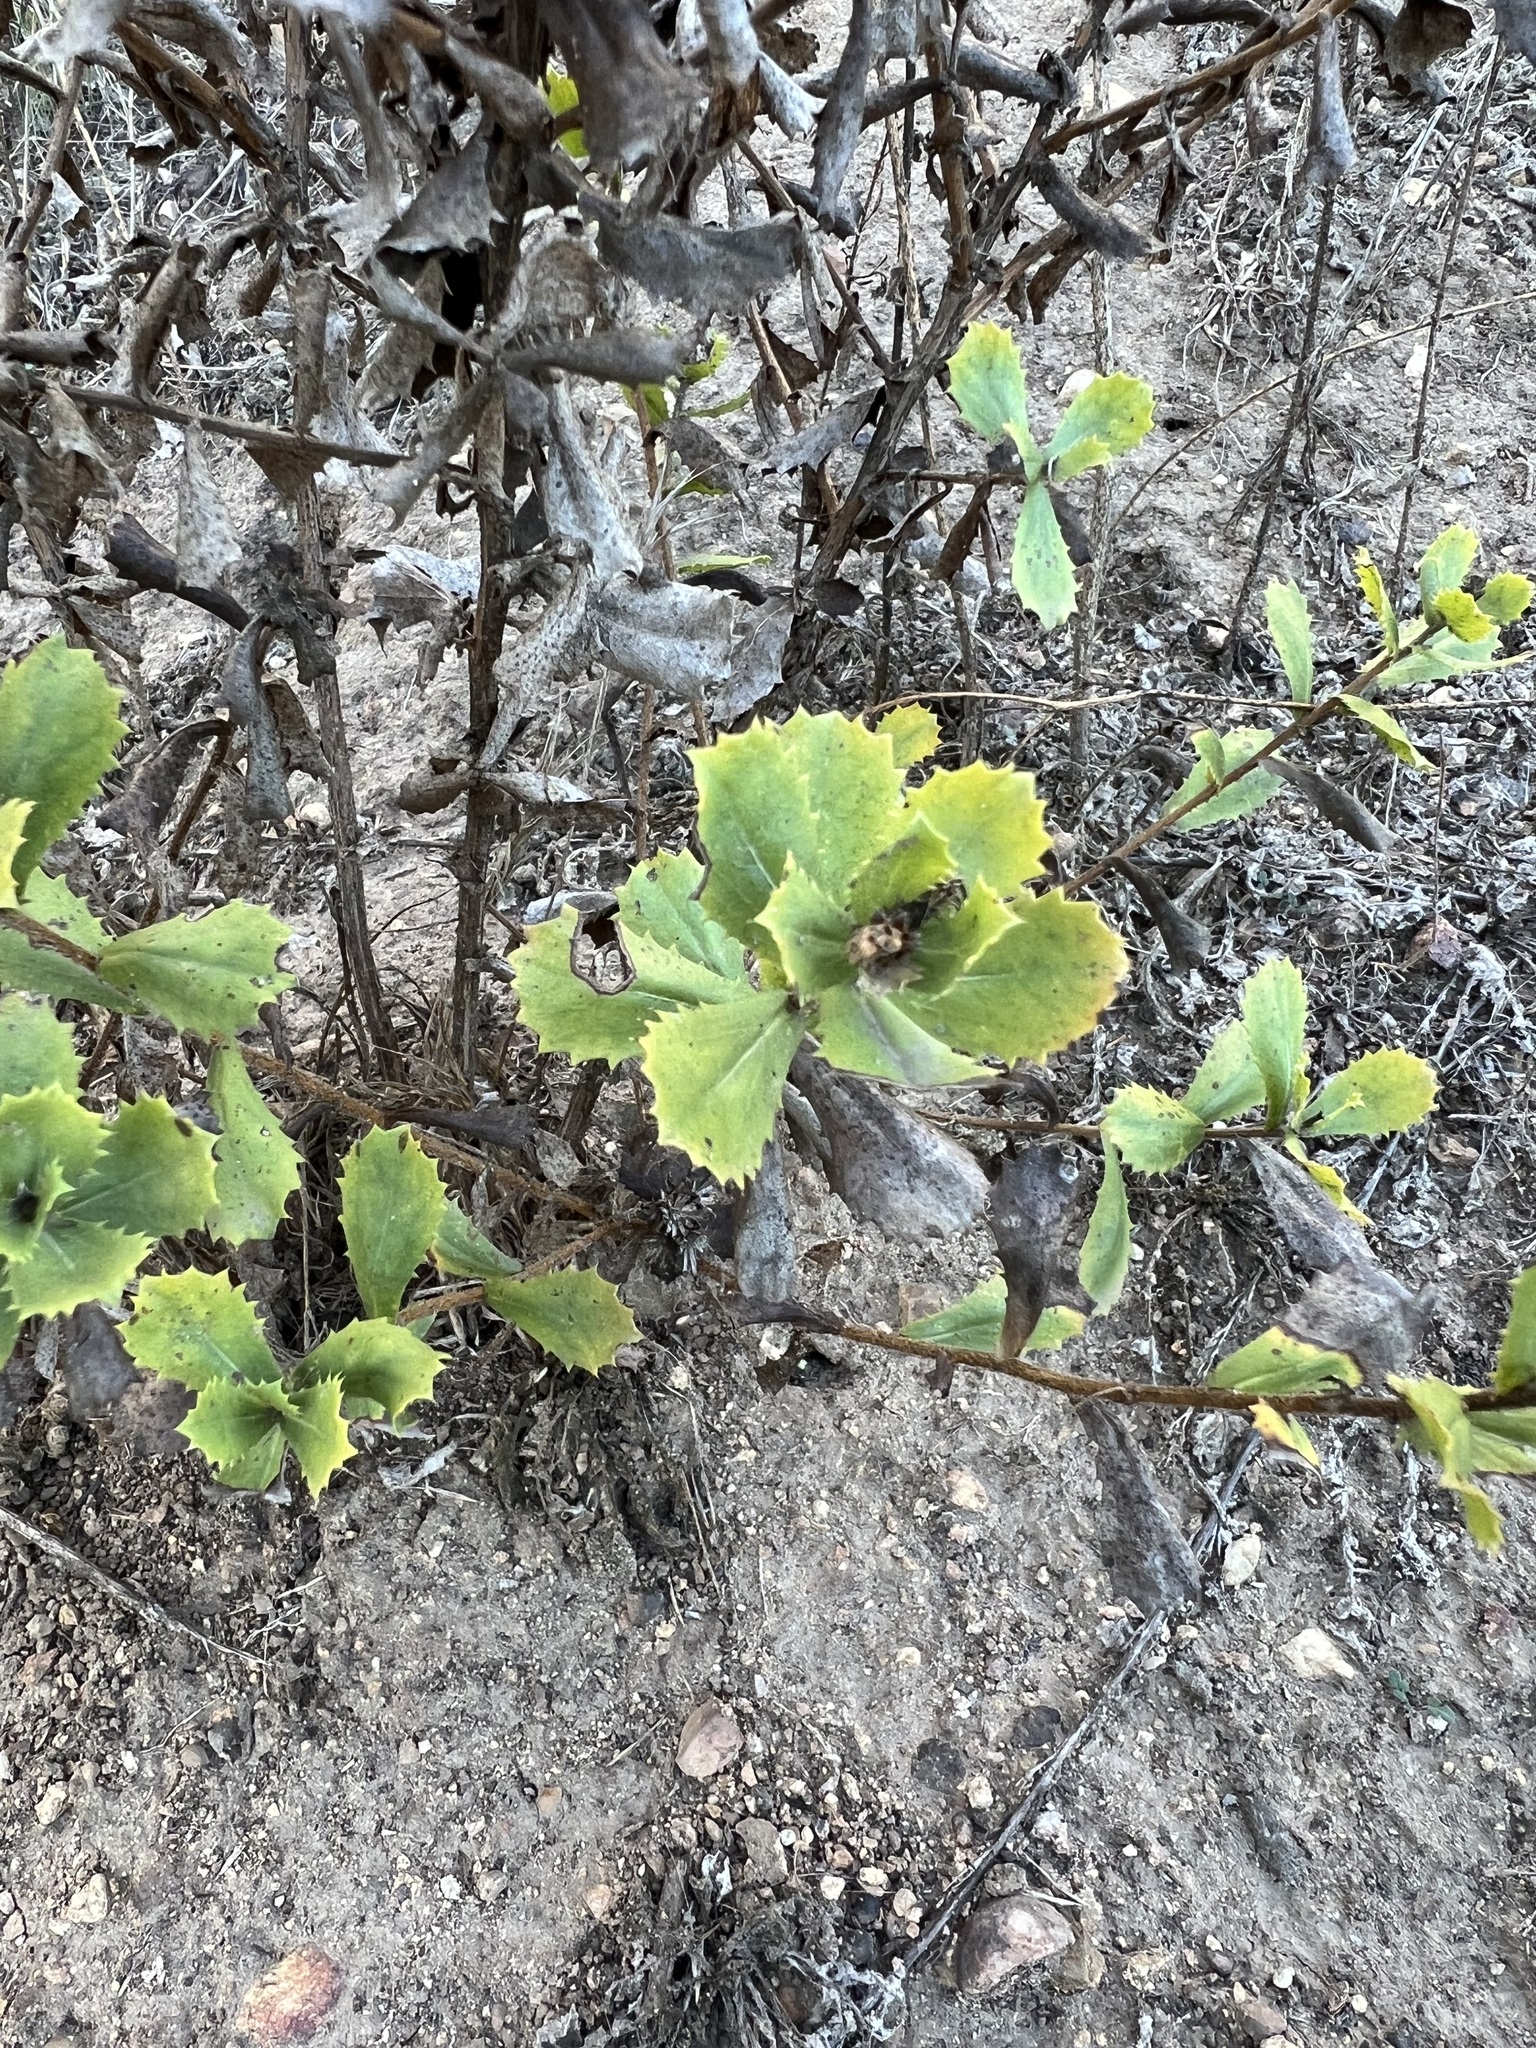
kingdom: Plantae
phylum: Tracheophyta
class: Magnoliopsida
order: Asterales
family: Asteraceae
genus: Hazardia
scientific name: Hazardia squarrosa
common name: Saw-tooth goldenbush
